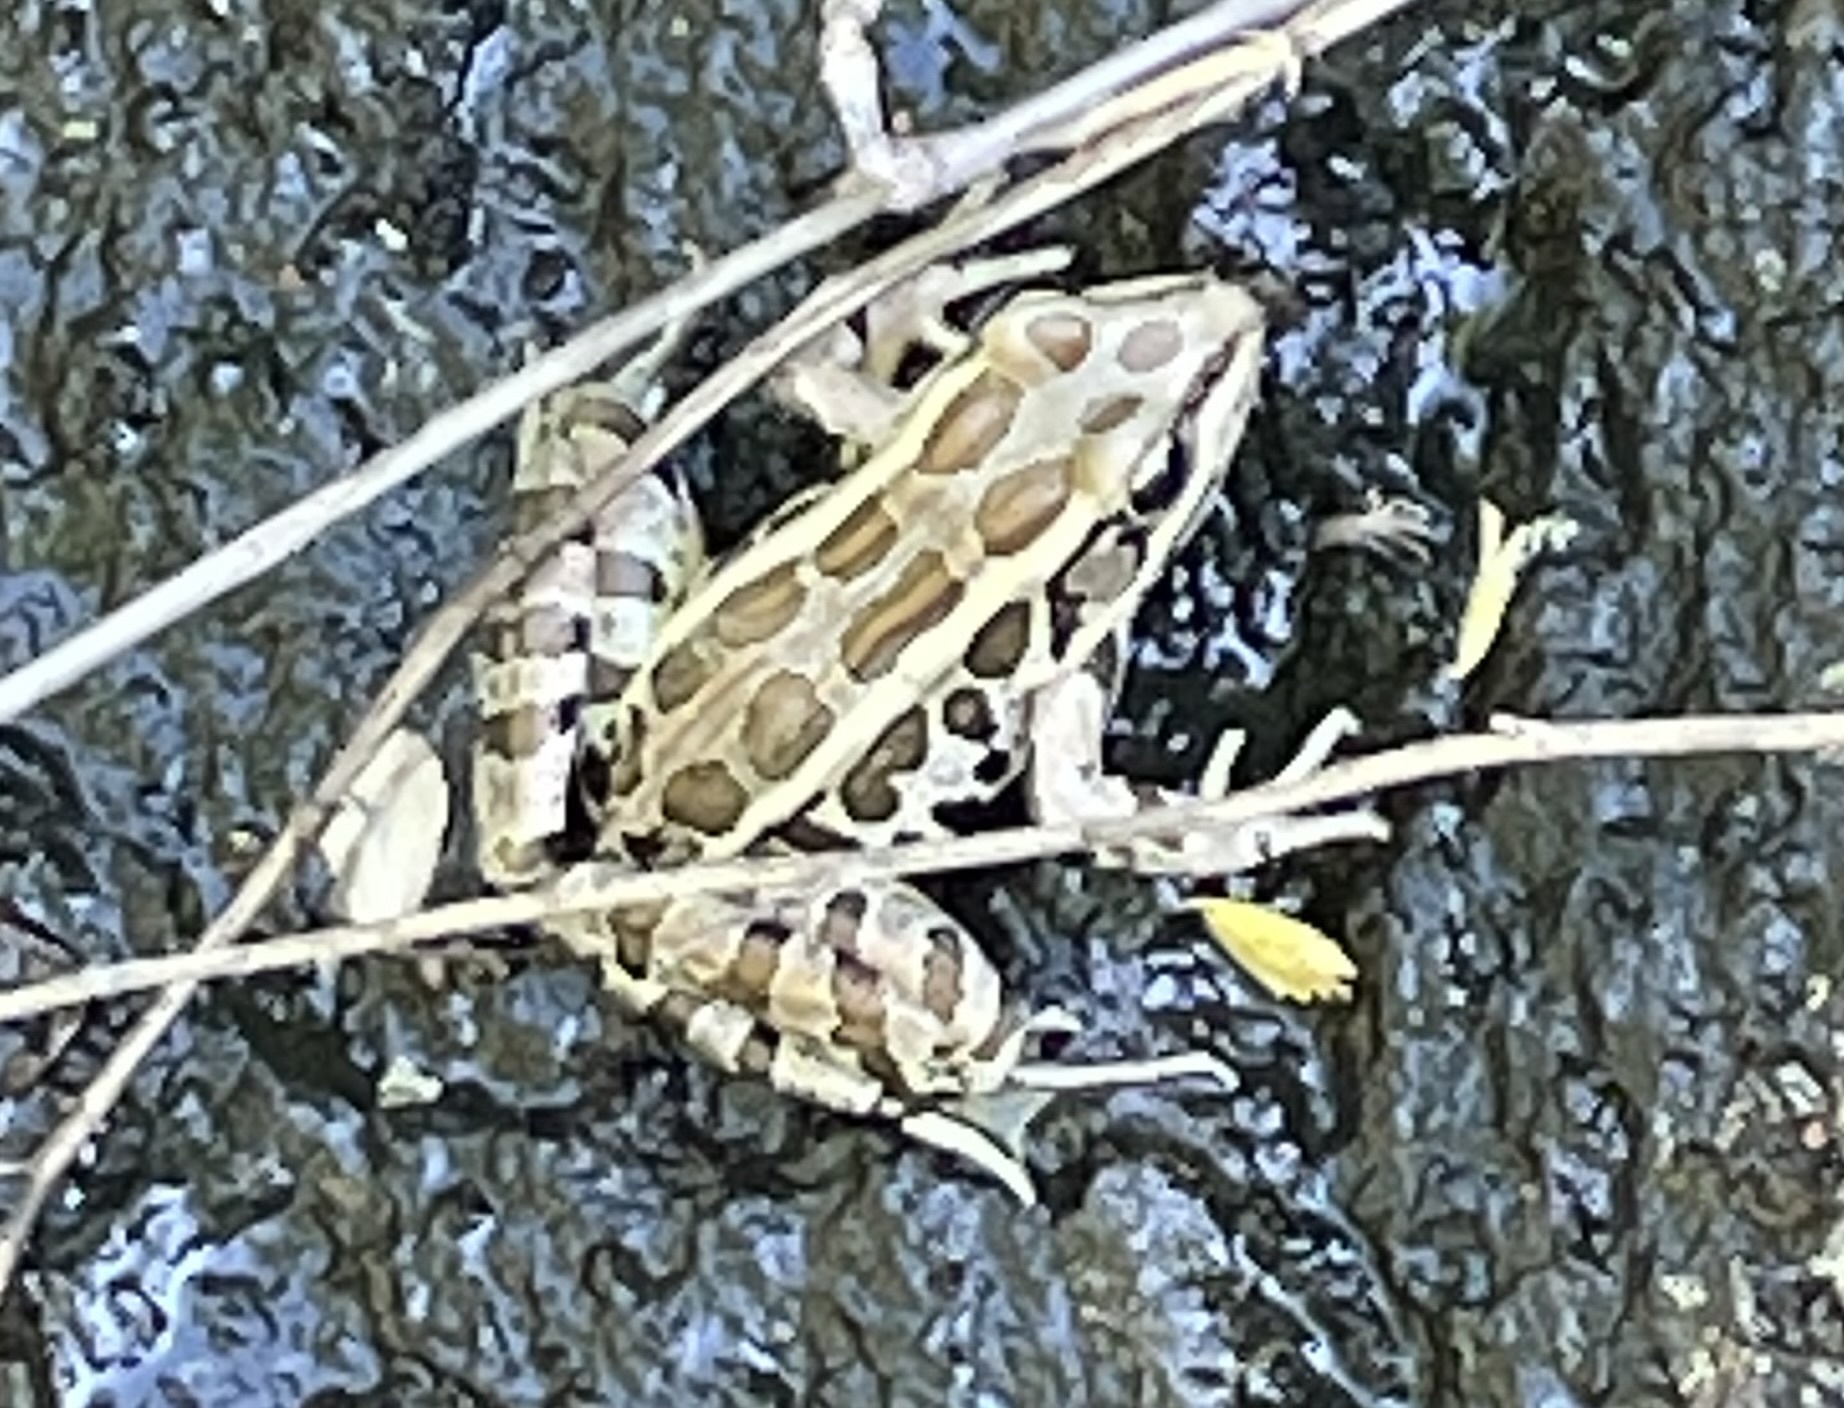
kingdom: Animalia
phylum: Chordata
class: Amphibia
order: Anura
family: Ranidae
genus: Lithobates
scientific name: Lithobates palustris
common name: Pickerel frog
